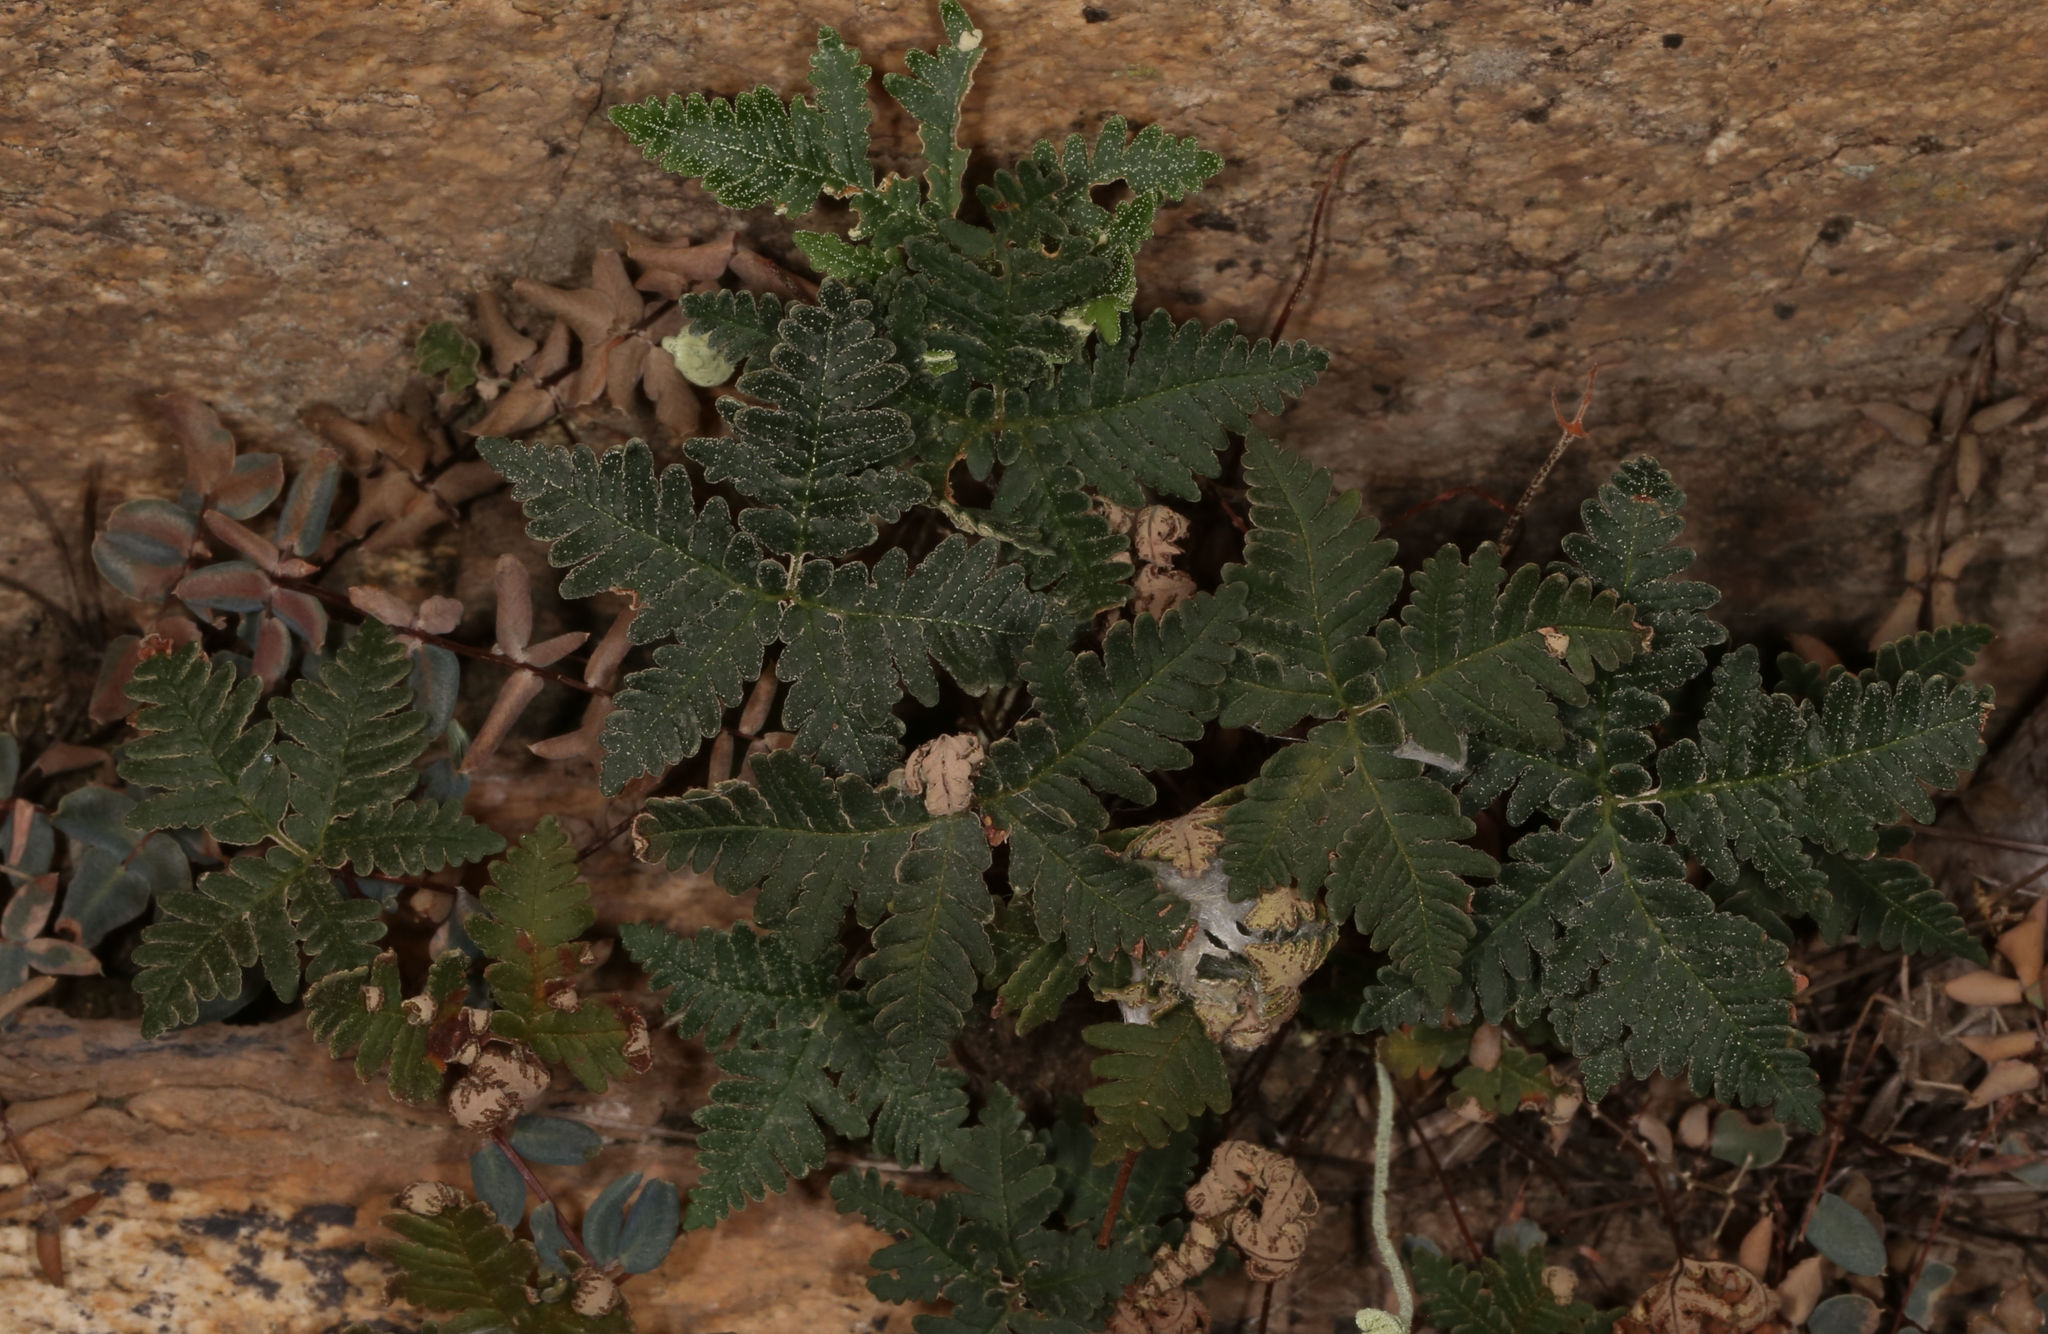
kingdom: Plantae
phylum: Tracheophyta
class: Polypodiopsida
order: Polypodiales
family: Pteridaceae
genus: Notholaena
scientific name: Notholaena standleyi
